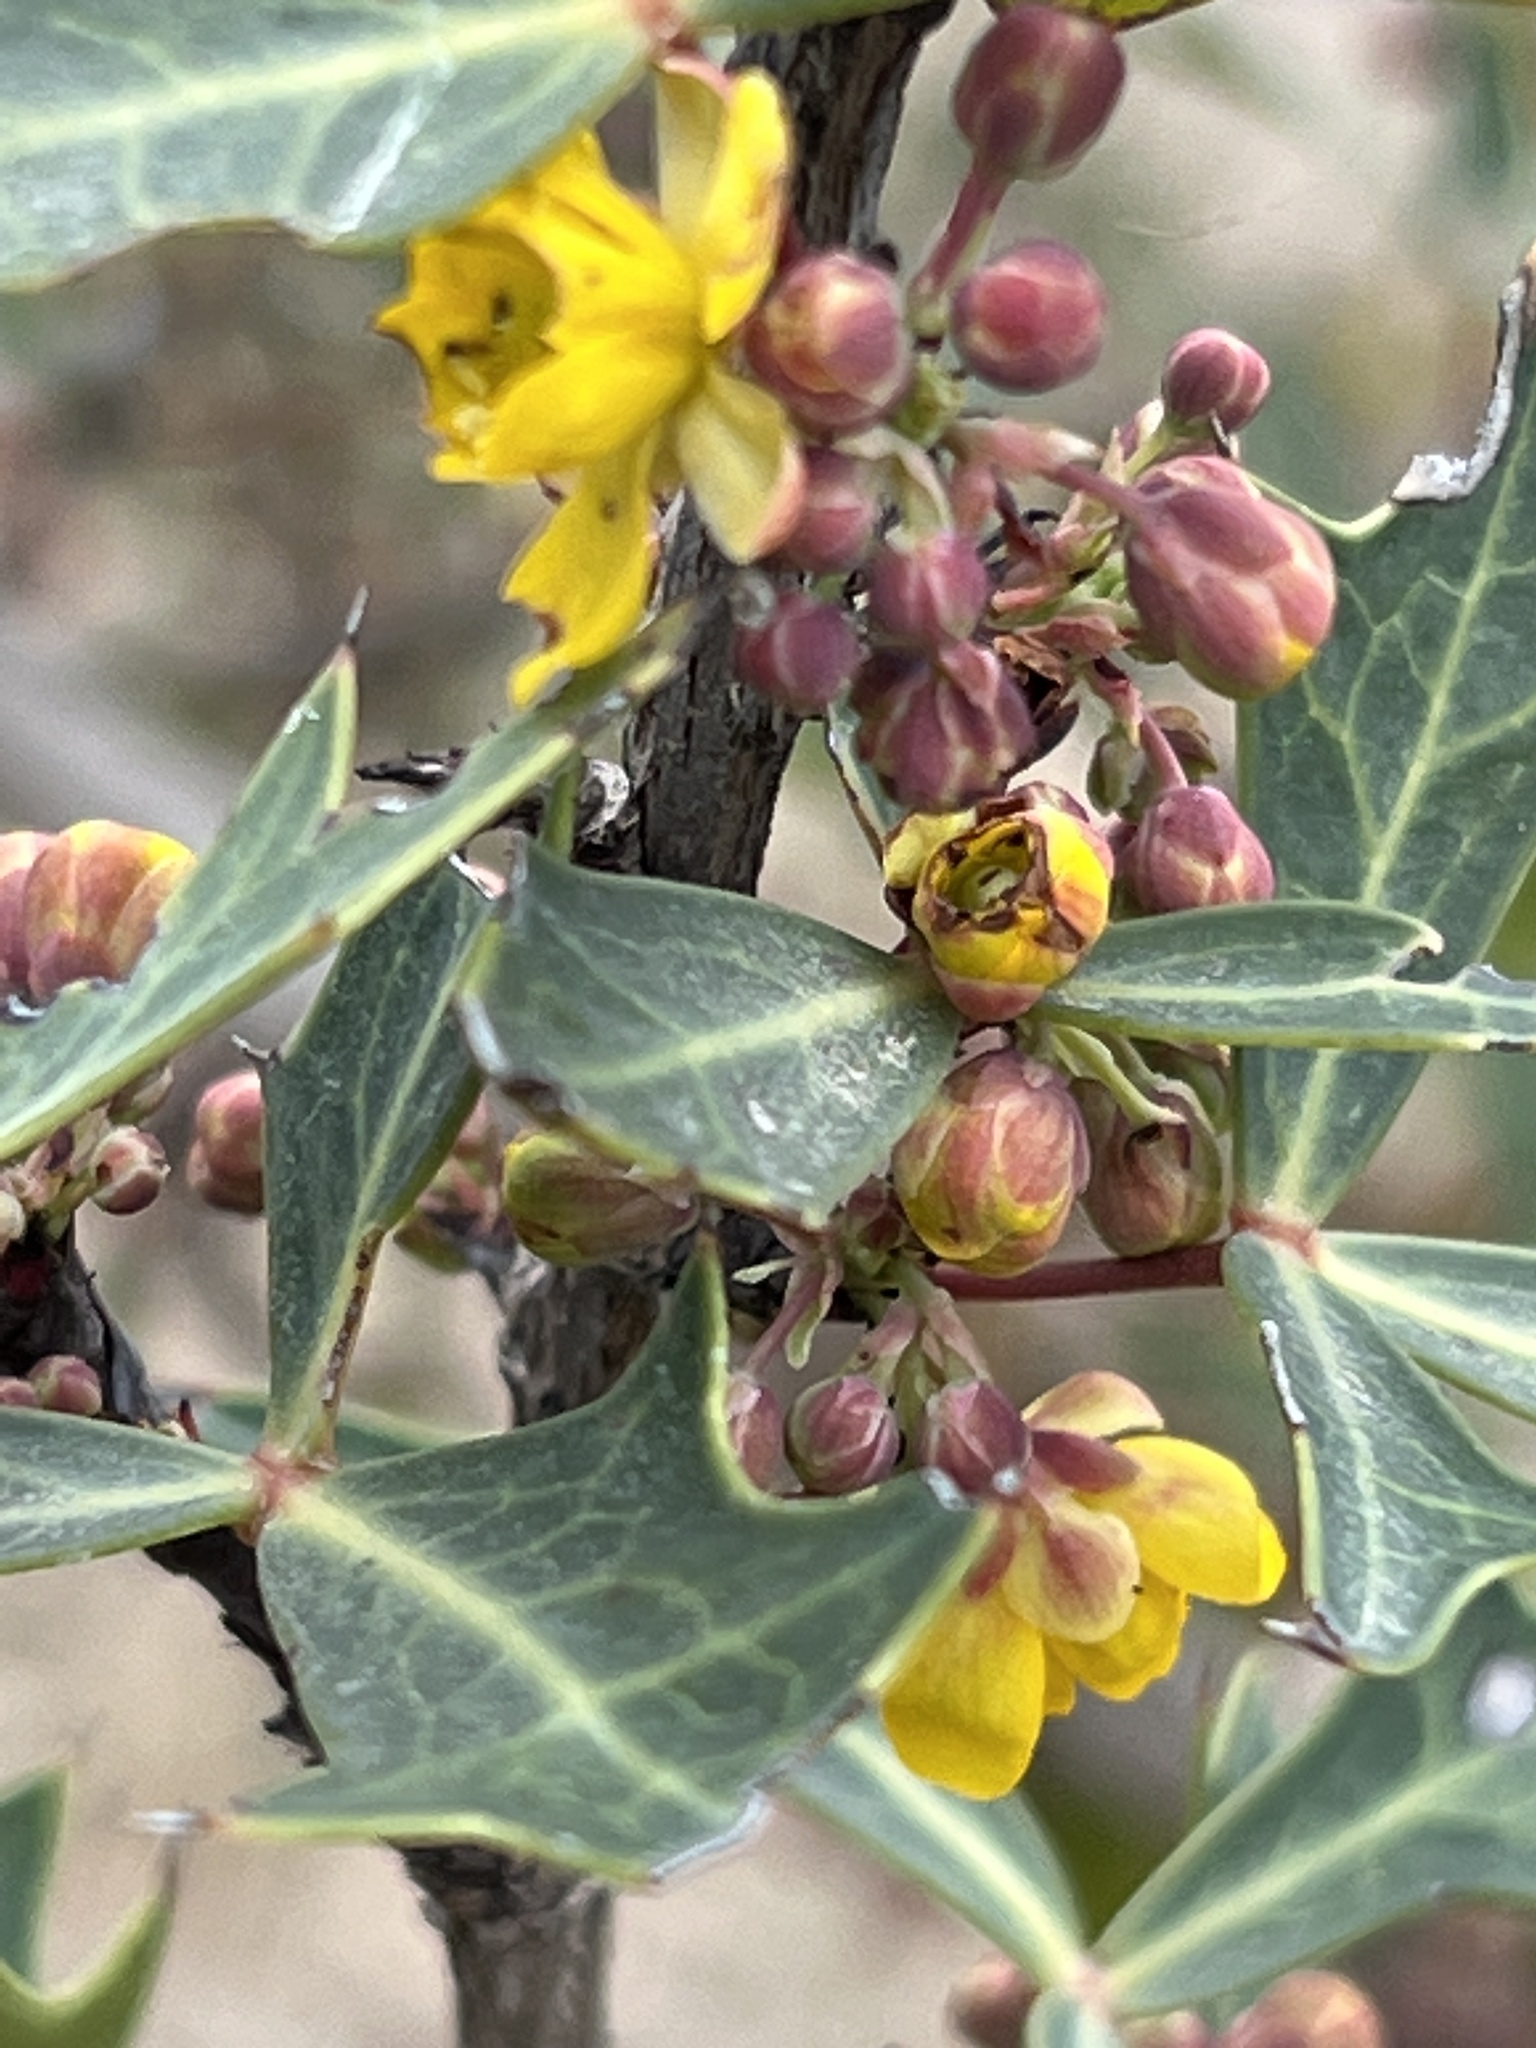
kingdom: Plantae
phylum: Tracheophyta
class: Magnoliopsida
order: Ranunculales
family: Berberidaceae
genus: Alloberberis
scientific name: Alloberberis trifoliolata
